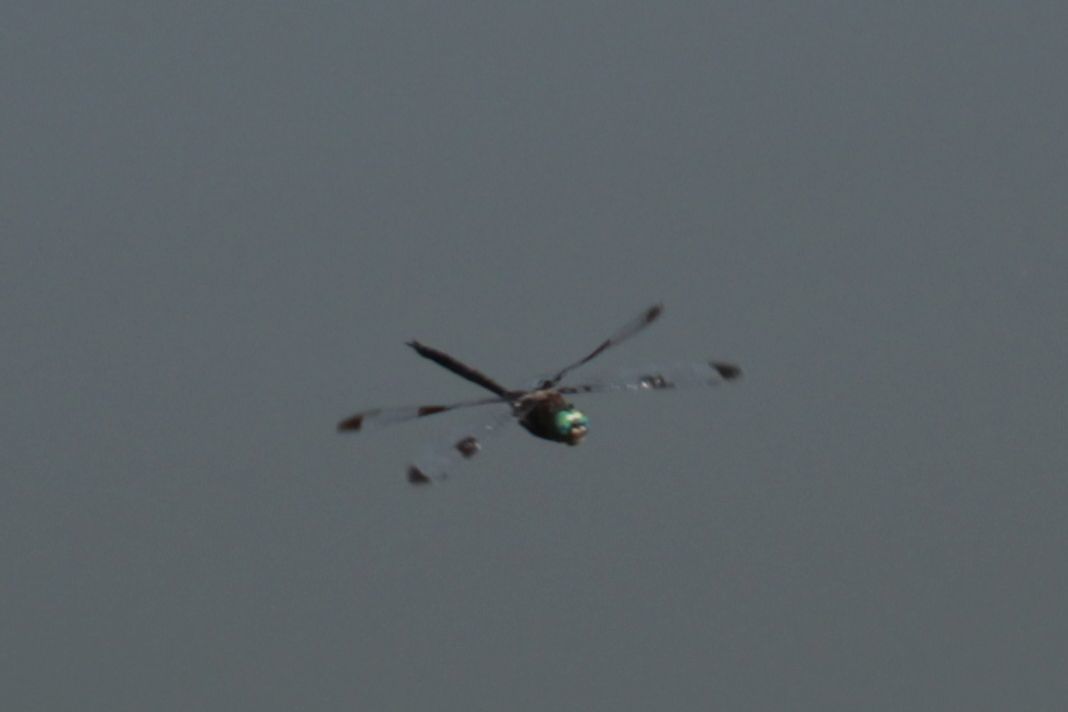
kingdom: Animalia
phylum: Arthropoda
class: Insecta
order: Odonata
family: Corduliidae
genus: Epitheca
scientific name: Epitheca princeps
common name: Prince baskettail
